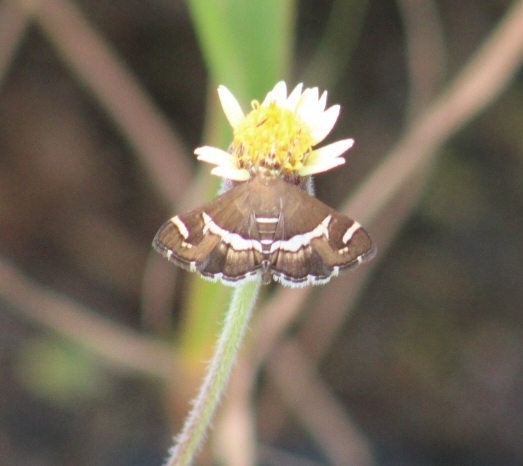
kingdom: Animalia
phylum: Arthropoda
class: Insecta
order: Lepidoptera
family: Crambidae
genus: Spoladea
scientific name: Spoladea recurvalis
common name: Beet webworm moth
